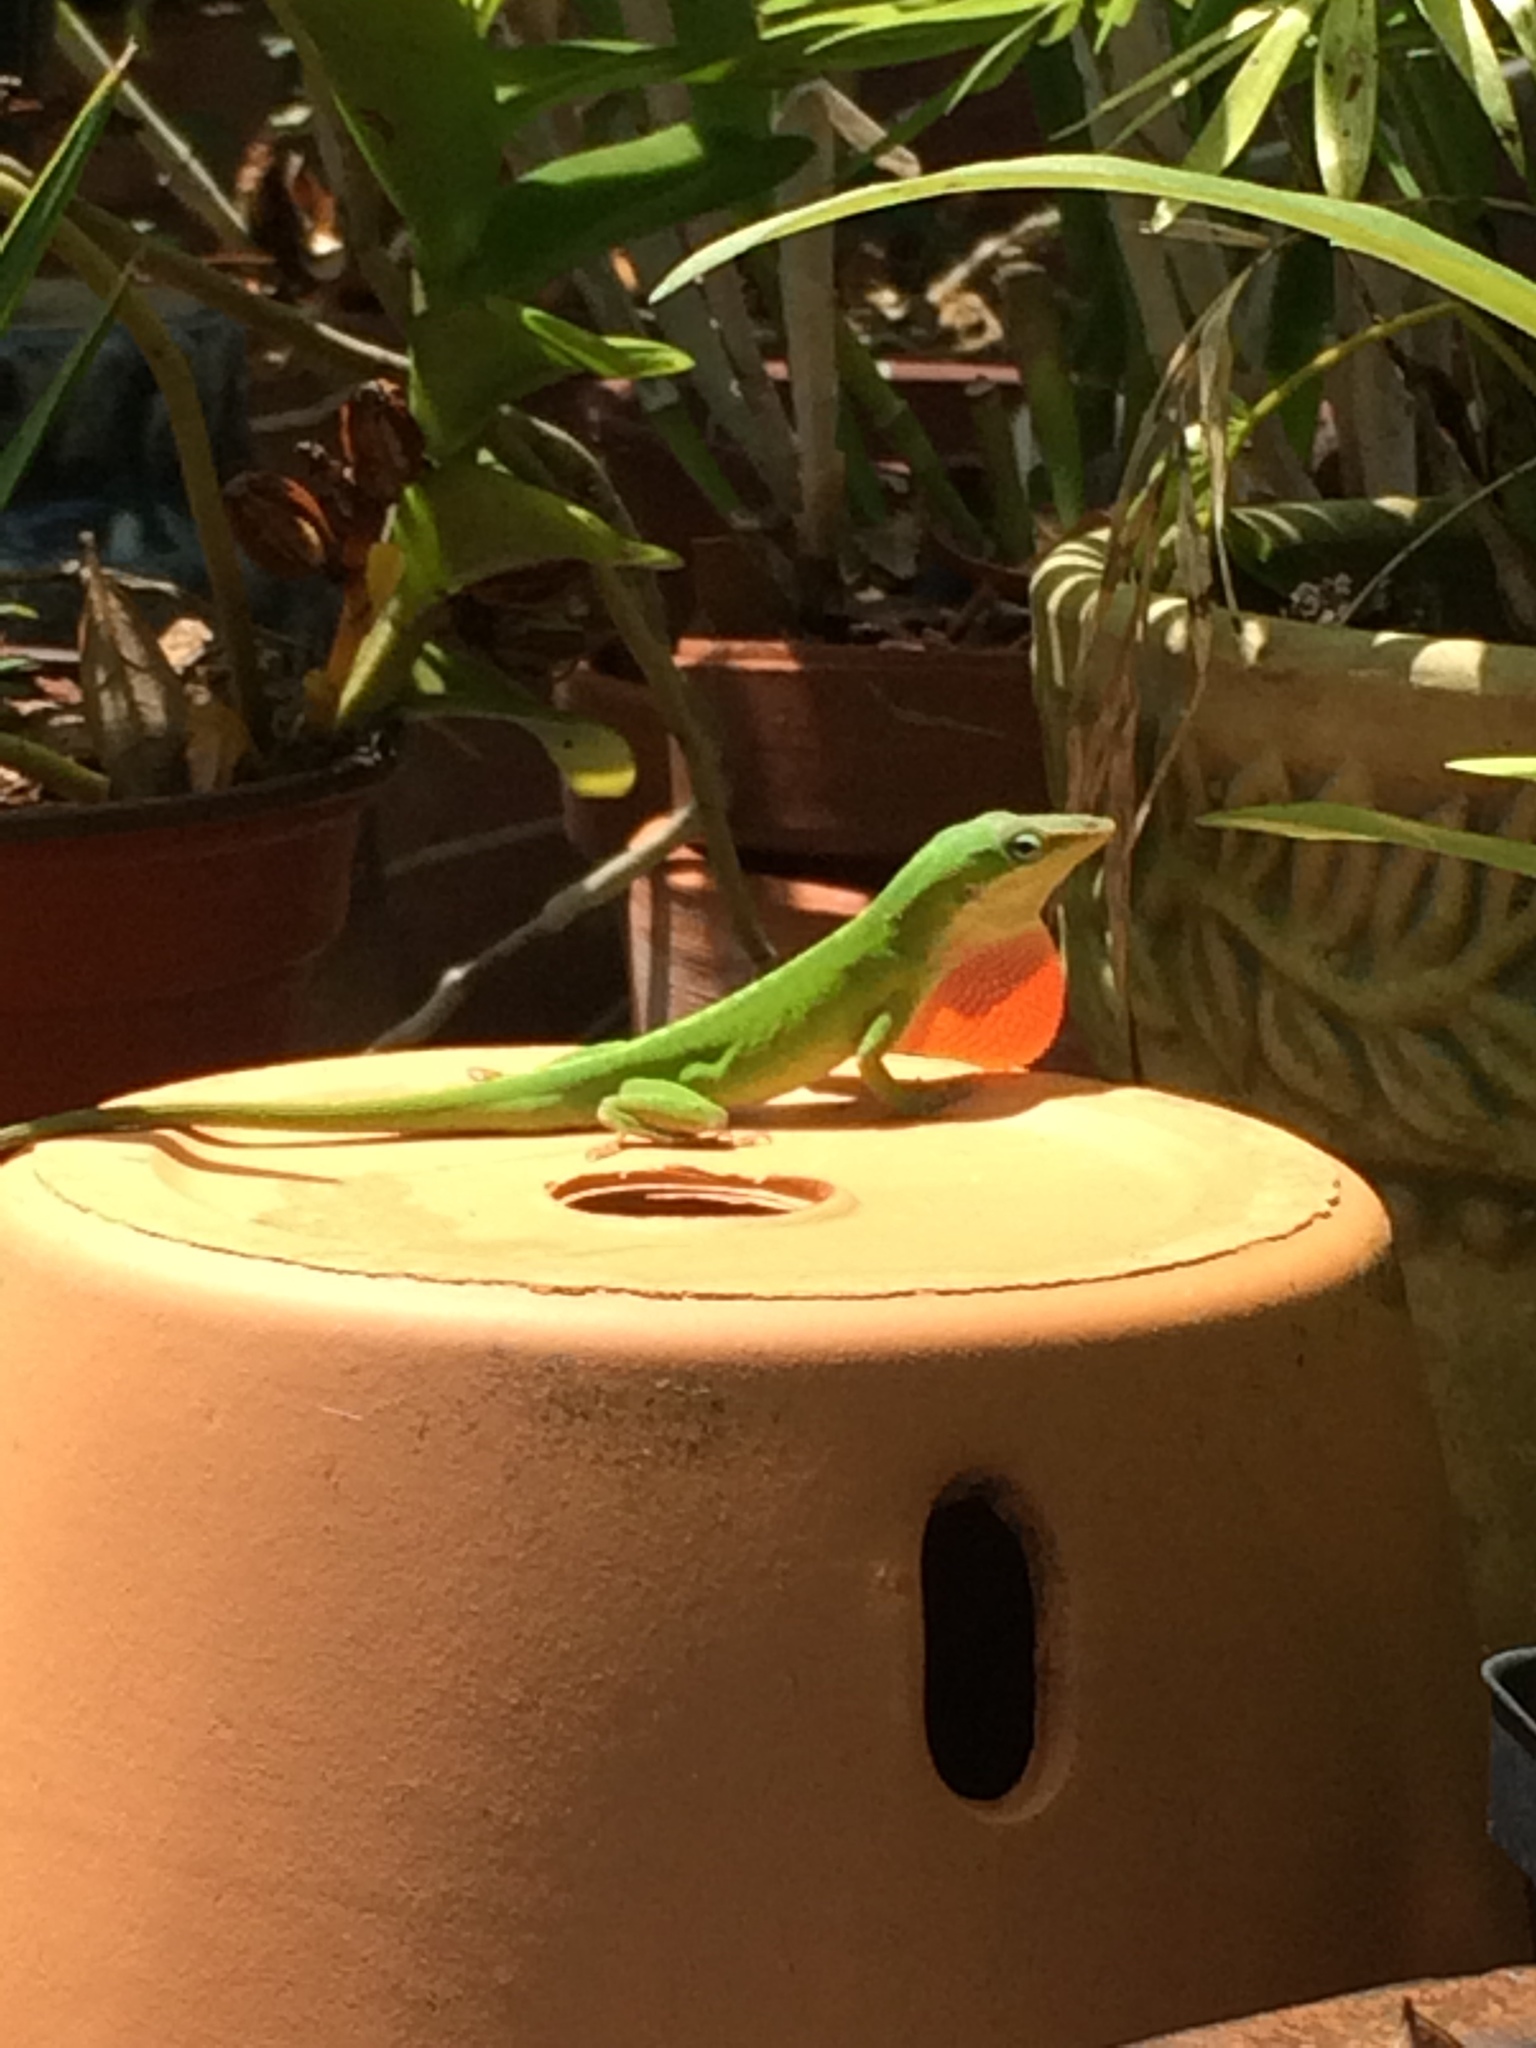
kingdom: Animalia
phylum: Chordata
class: Squamata
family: Dactyloidae
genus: Anolis
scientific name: Anolis carolinensis
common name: Green anole
